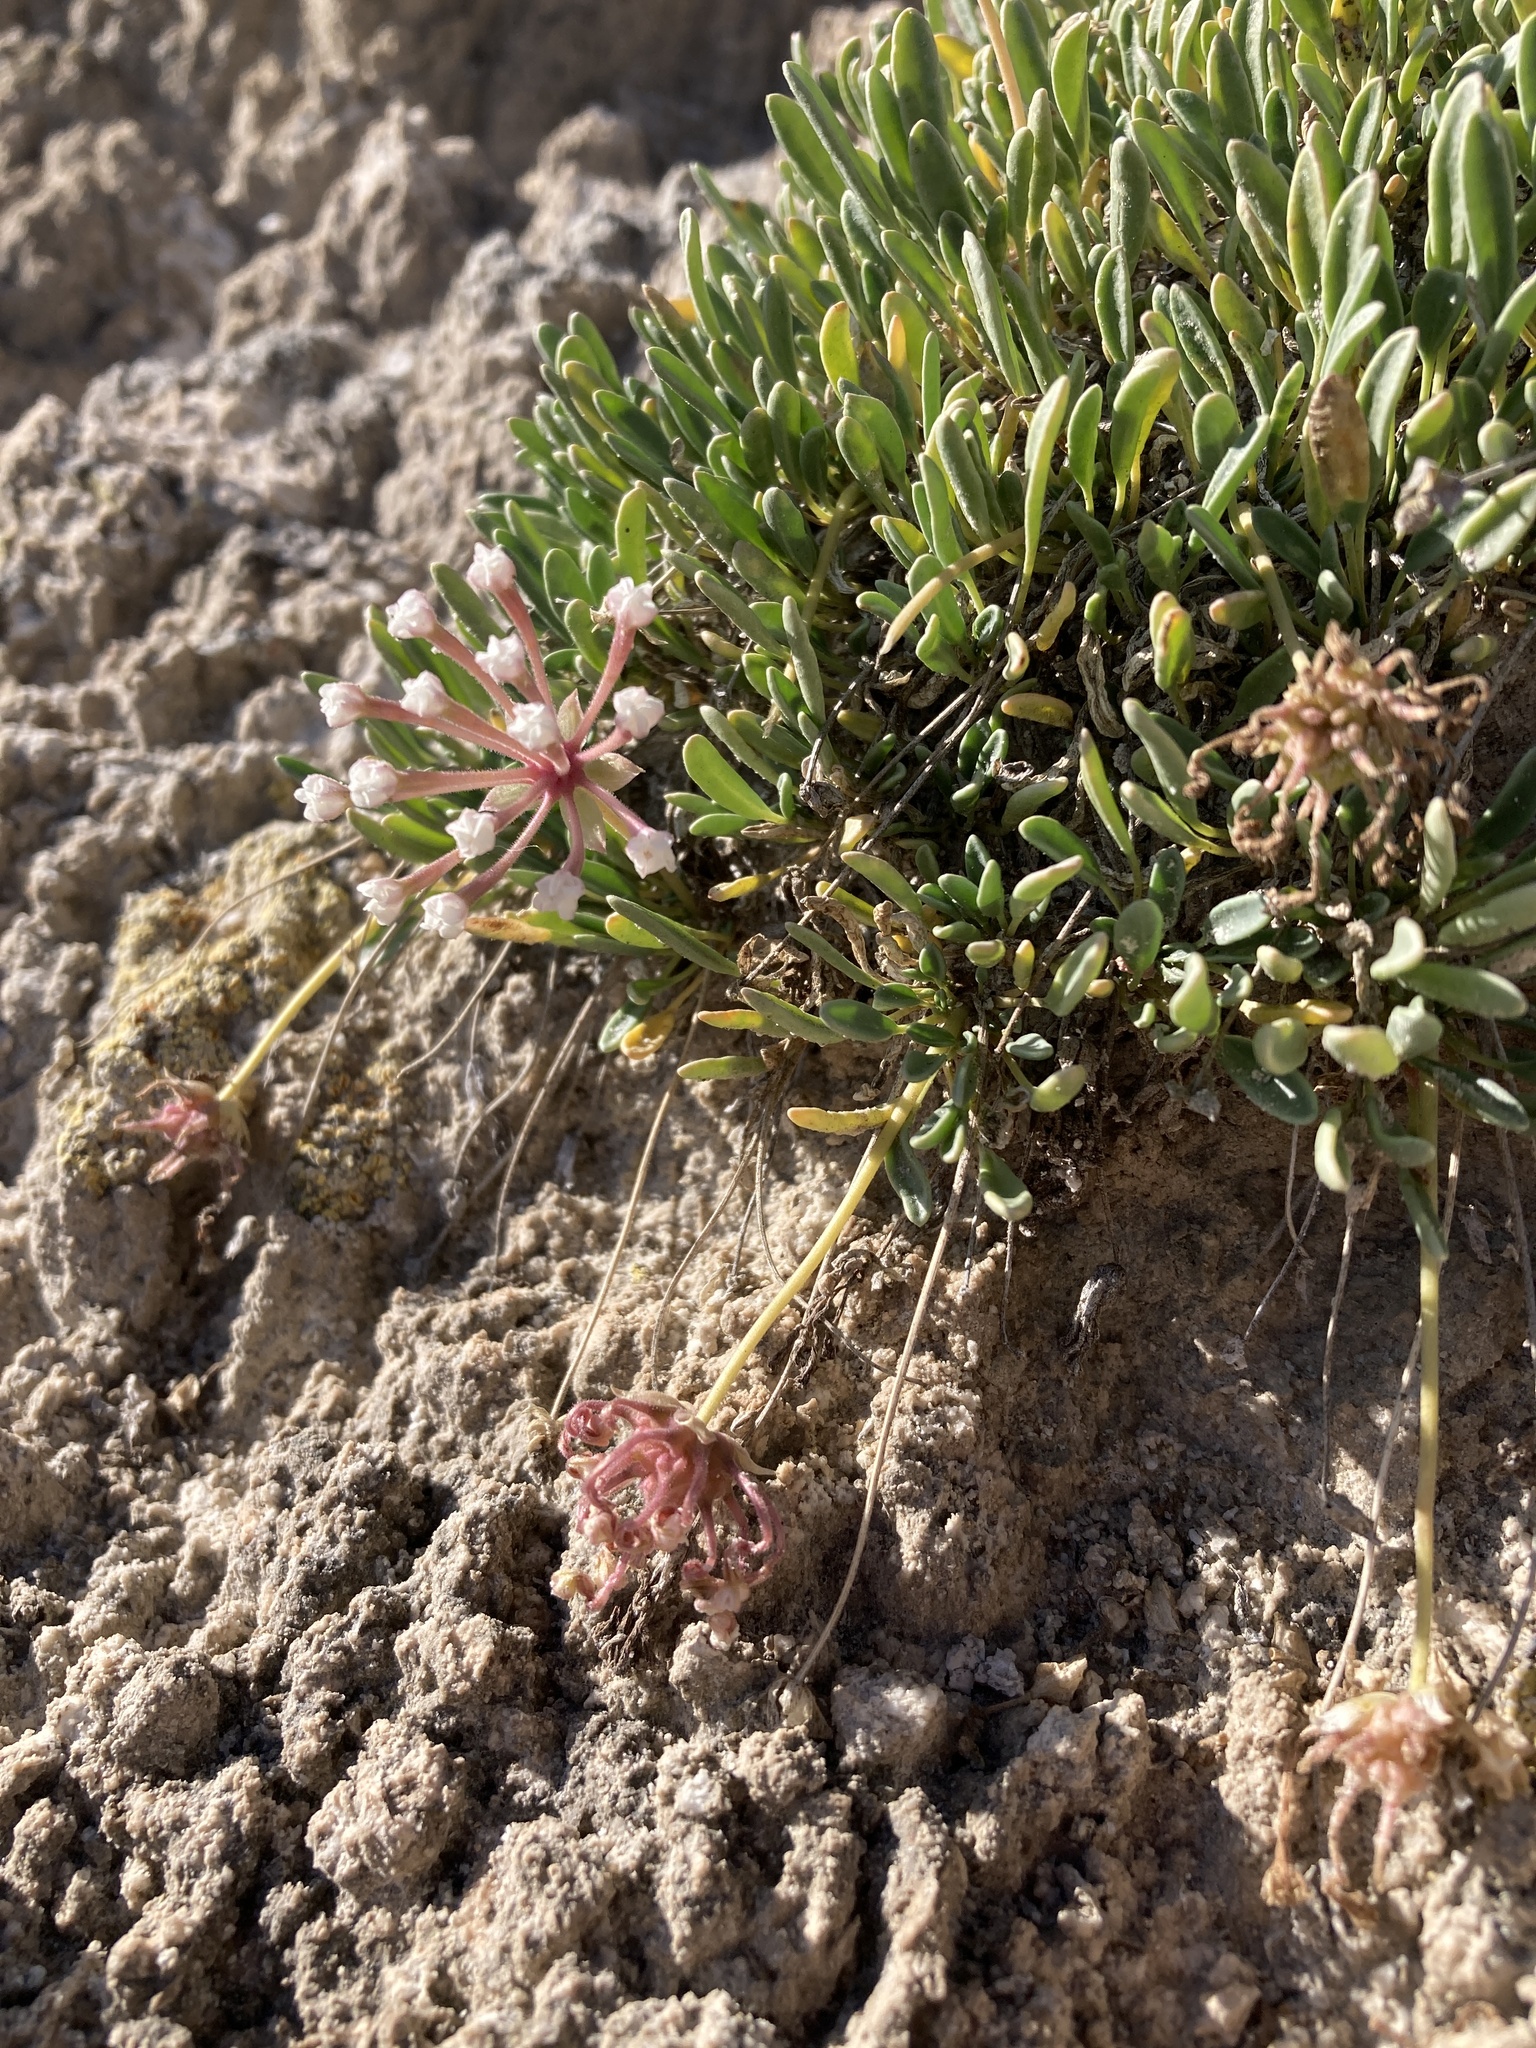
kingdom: Plantae
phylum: Tracheophyta
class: Magnoliopsida
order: Caryophyllales
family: Nyctaginaceae
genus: Abronia
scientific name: Abronia bigelovii
